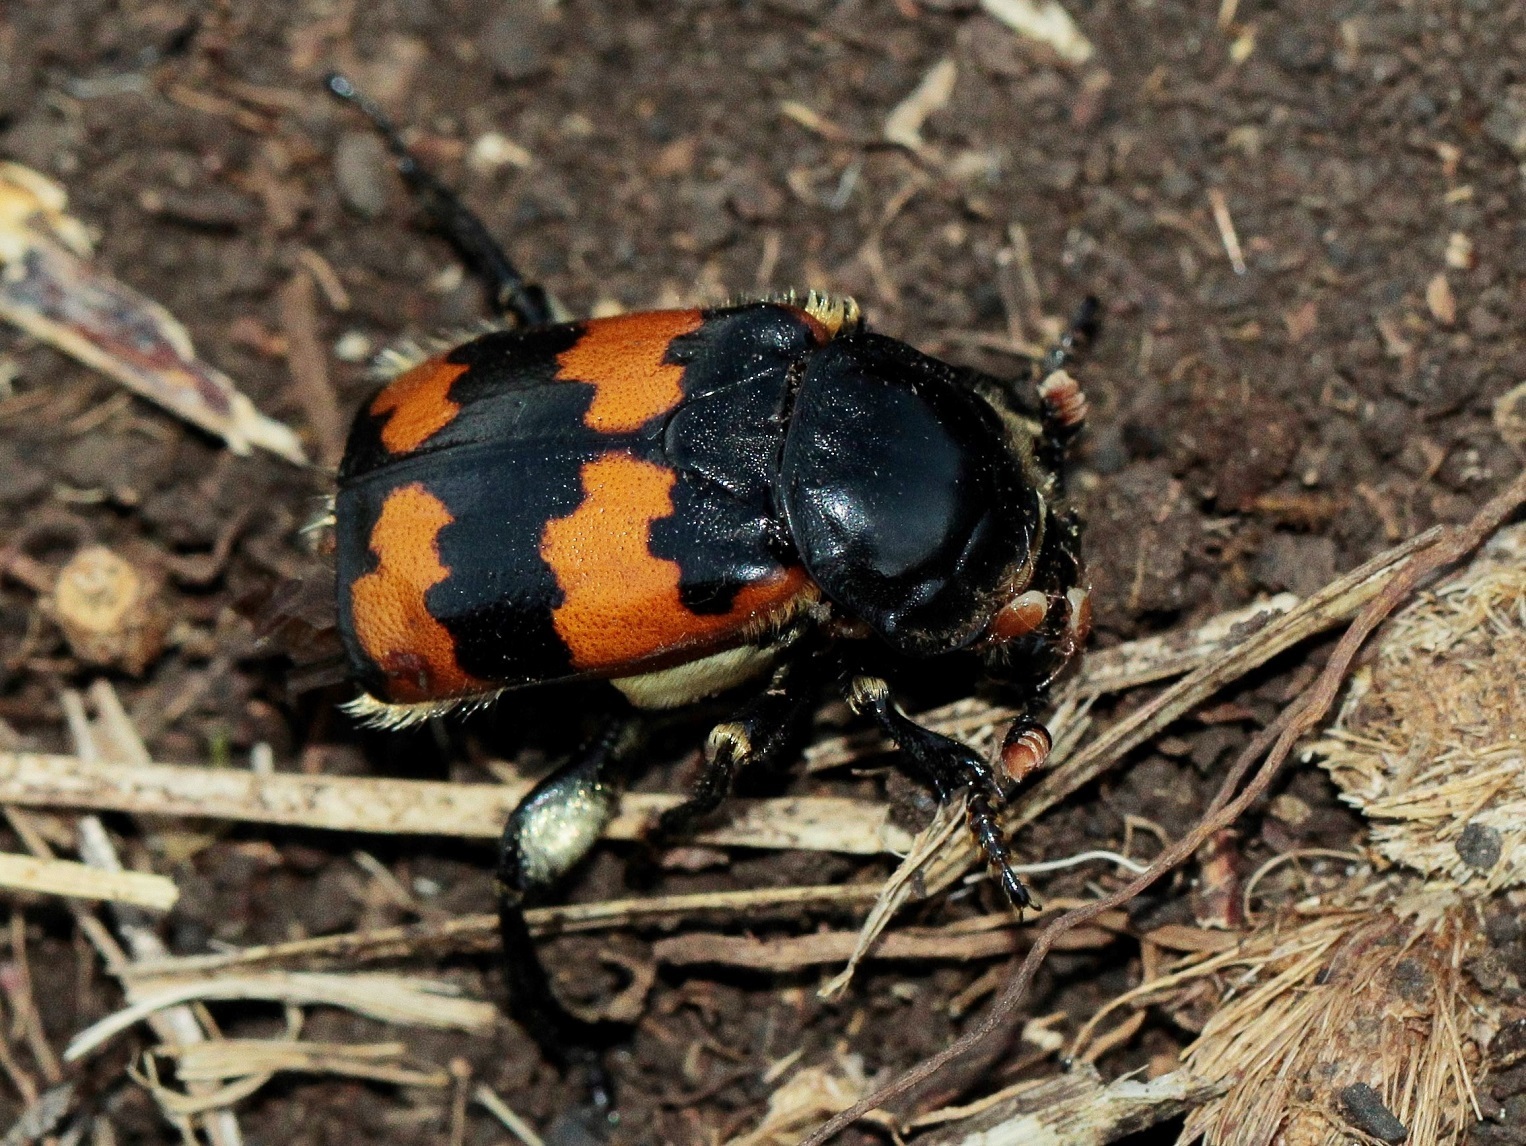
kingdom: Animalia
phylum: Arthropoda
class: Insecta
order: Coleoptera
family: Staphylinidae
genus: Nicrophorus
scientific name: Nicrophorus vespillo
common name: Common burying beetle
